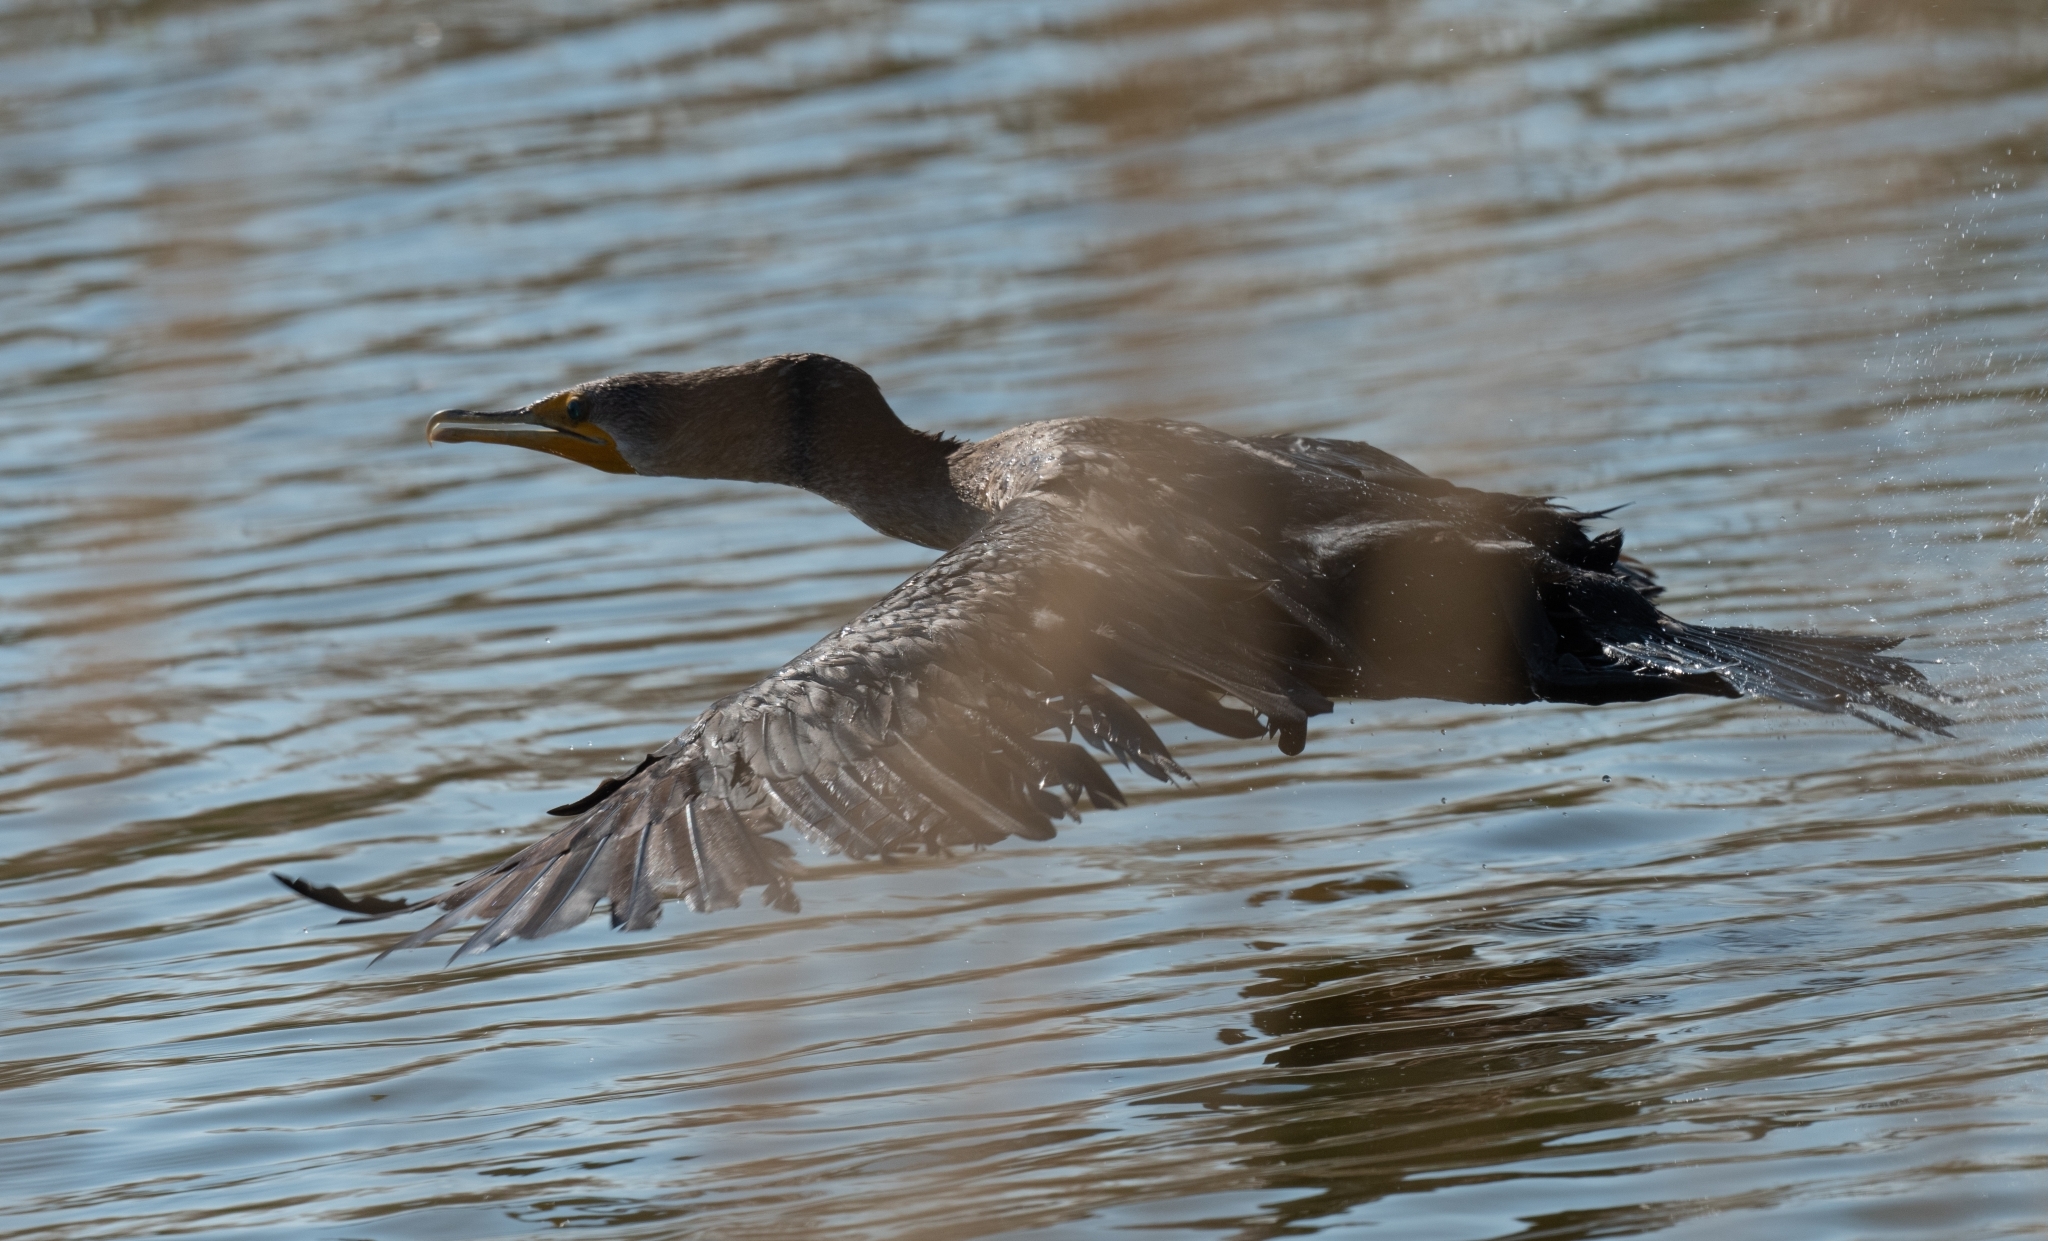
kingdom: Animalia
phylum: Chordata
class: Aves
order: Suliformes
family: Phalacrocoracidae
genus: Phalacrocorax
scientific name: Phalacrocorax auritus
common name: Double-crested cormorant
